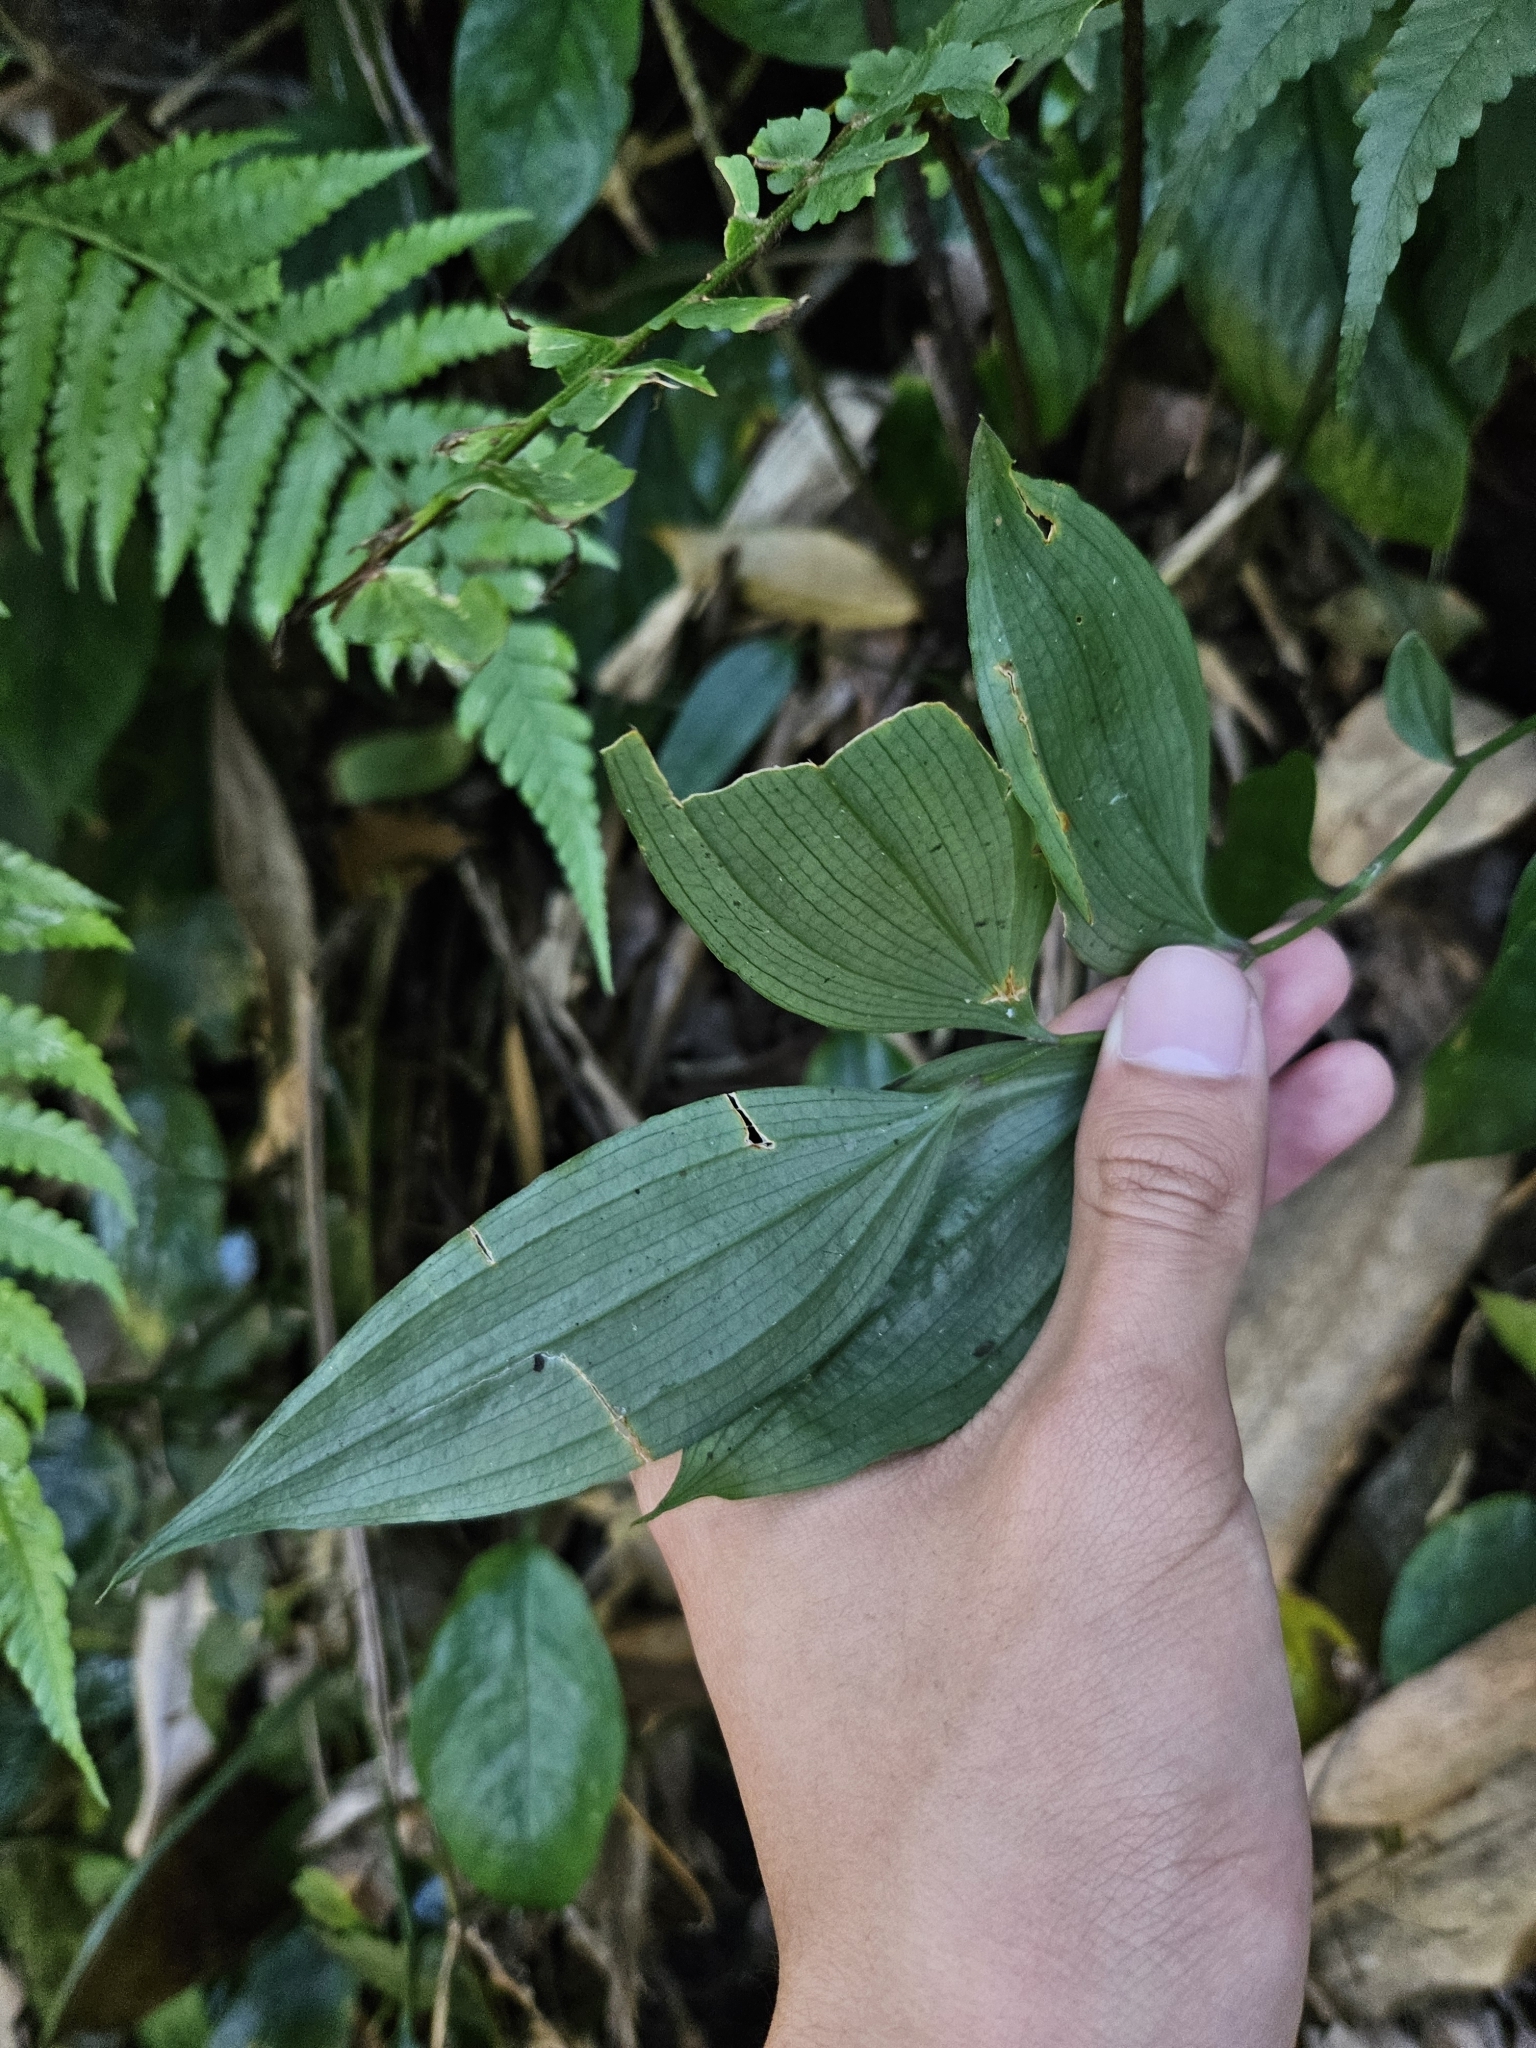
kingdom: Plantae
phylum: Tracheophyta
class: Liliopsida
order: Liliales
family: Colchicaceae
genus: Disporum
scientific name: Disporum kawakamii
